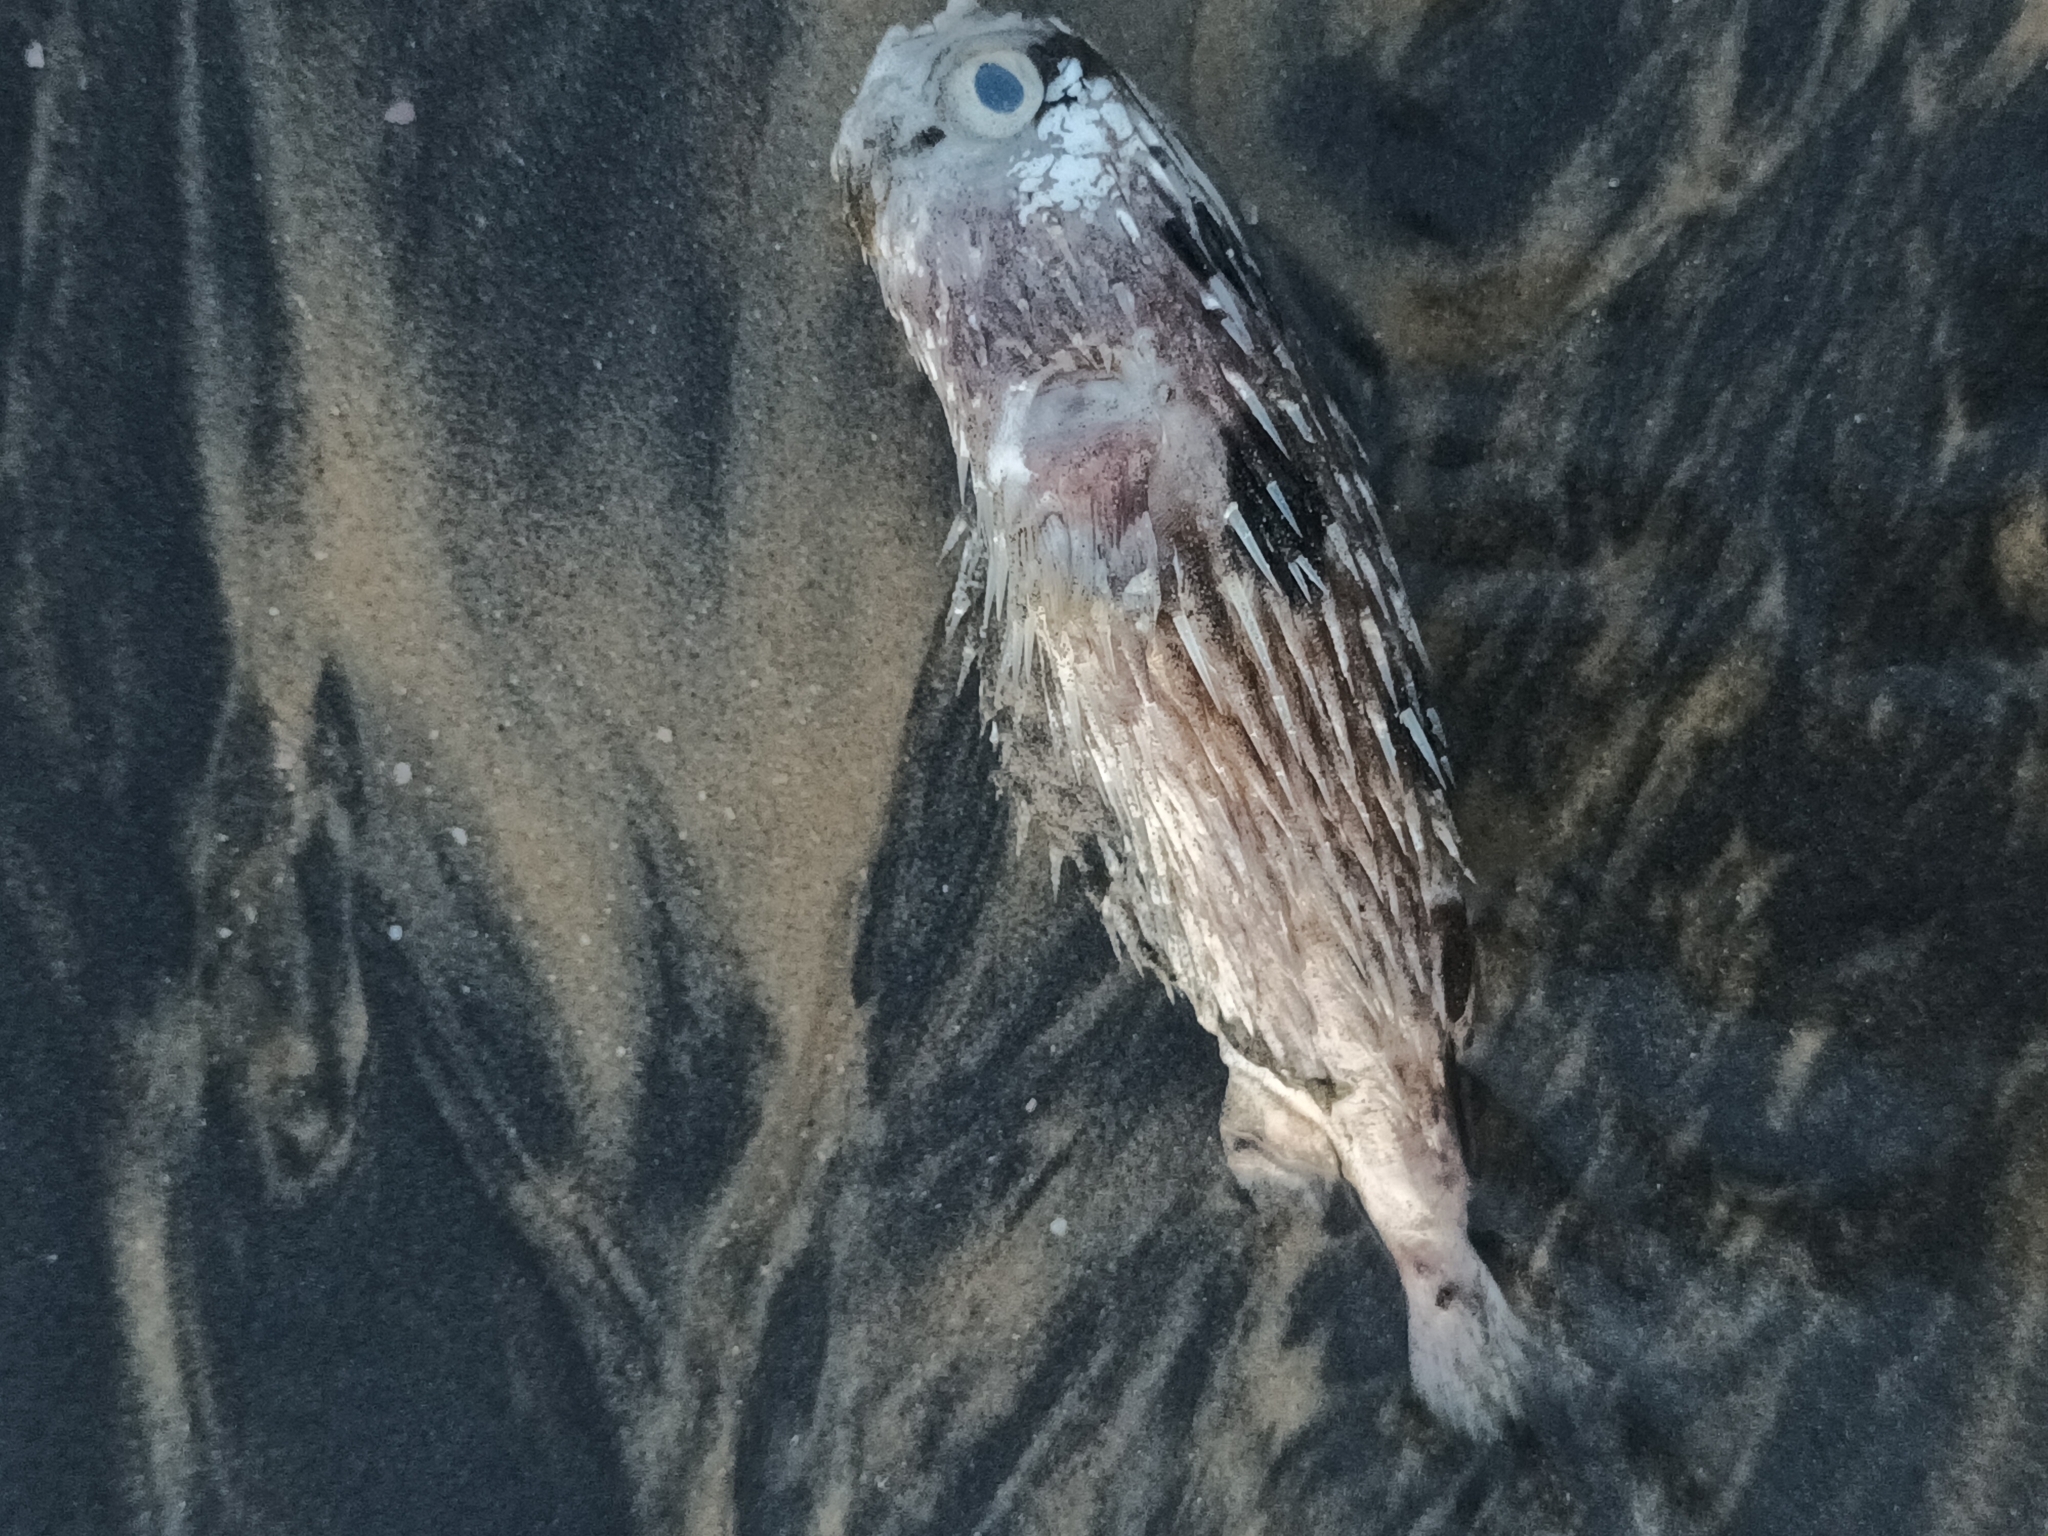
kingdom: Animalia
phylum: Chordata
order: Tetraodontiformes
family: Diodontidae
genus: Diodon
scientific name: Diodon holocanthus
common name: Balloonfish
